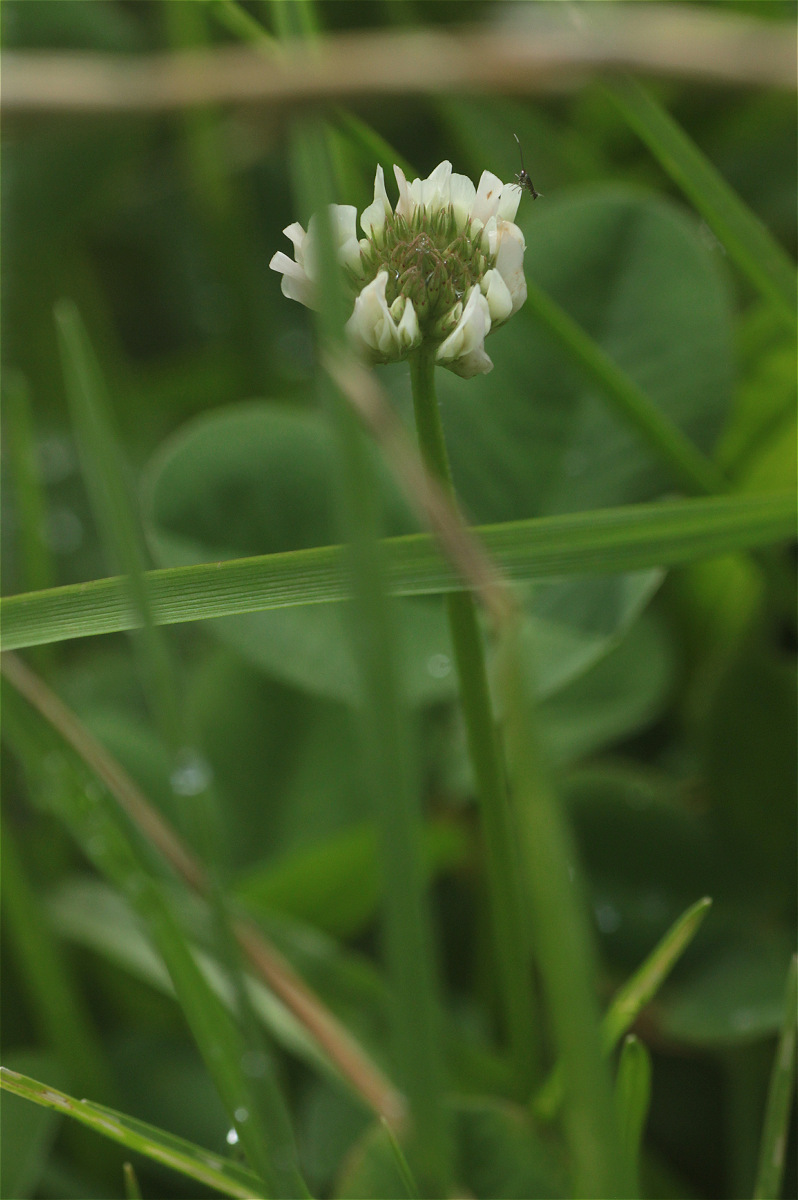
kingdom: Plantae
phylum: Tracheophyta
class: Magnoliopsida
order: Fabales
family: Fabaceae
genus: Trifolium
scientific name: Trifolium repens
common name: White clover
